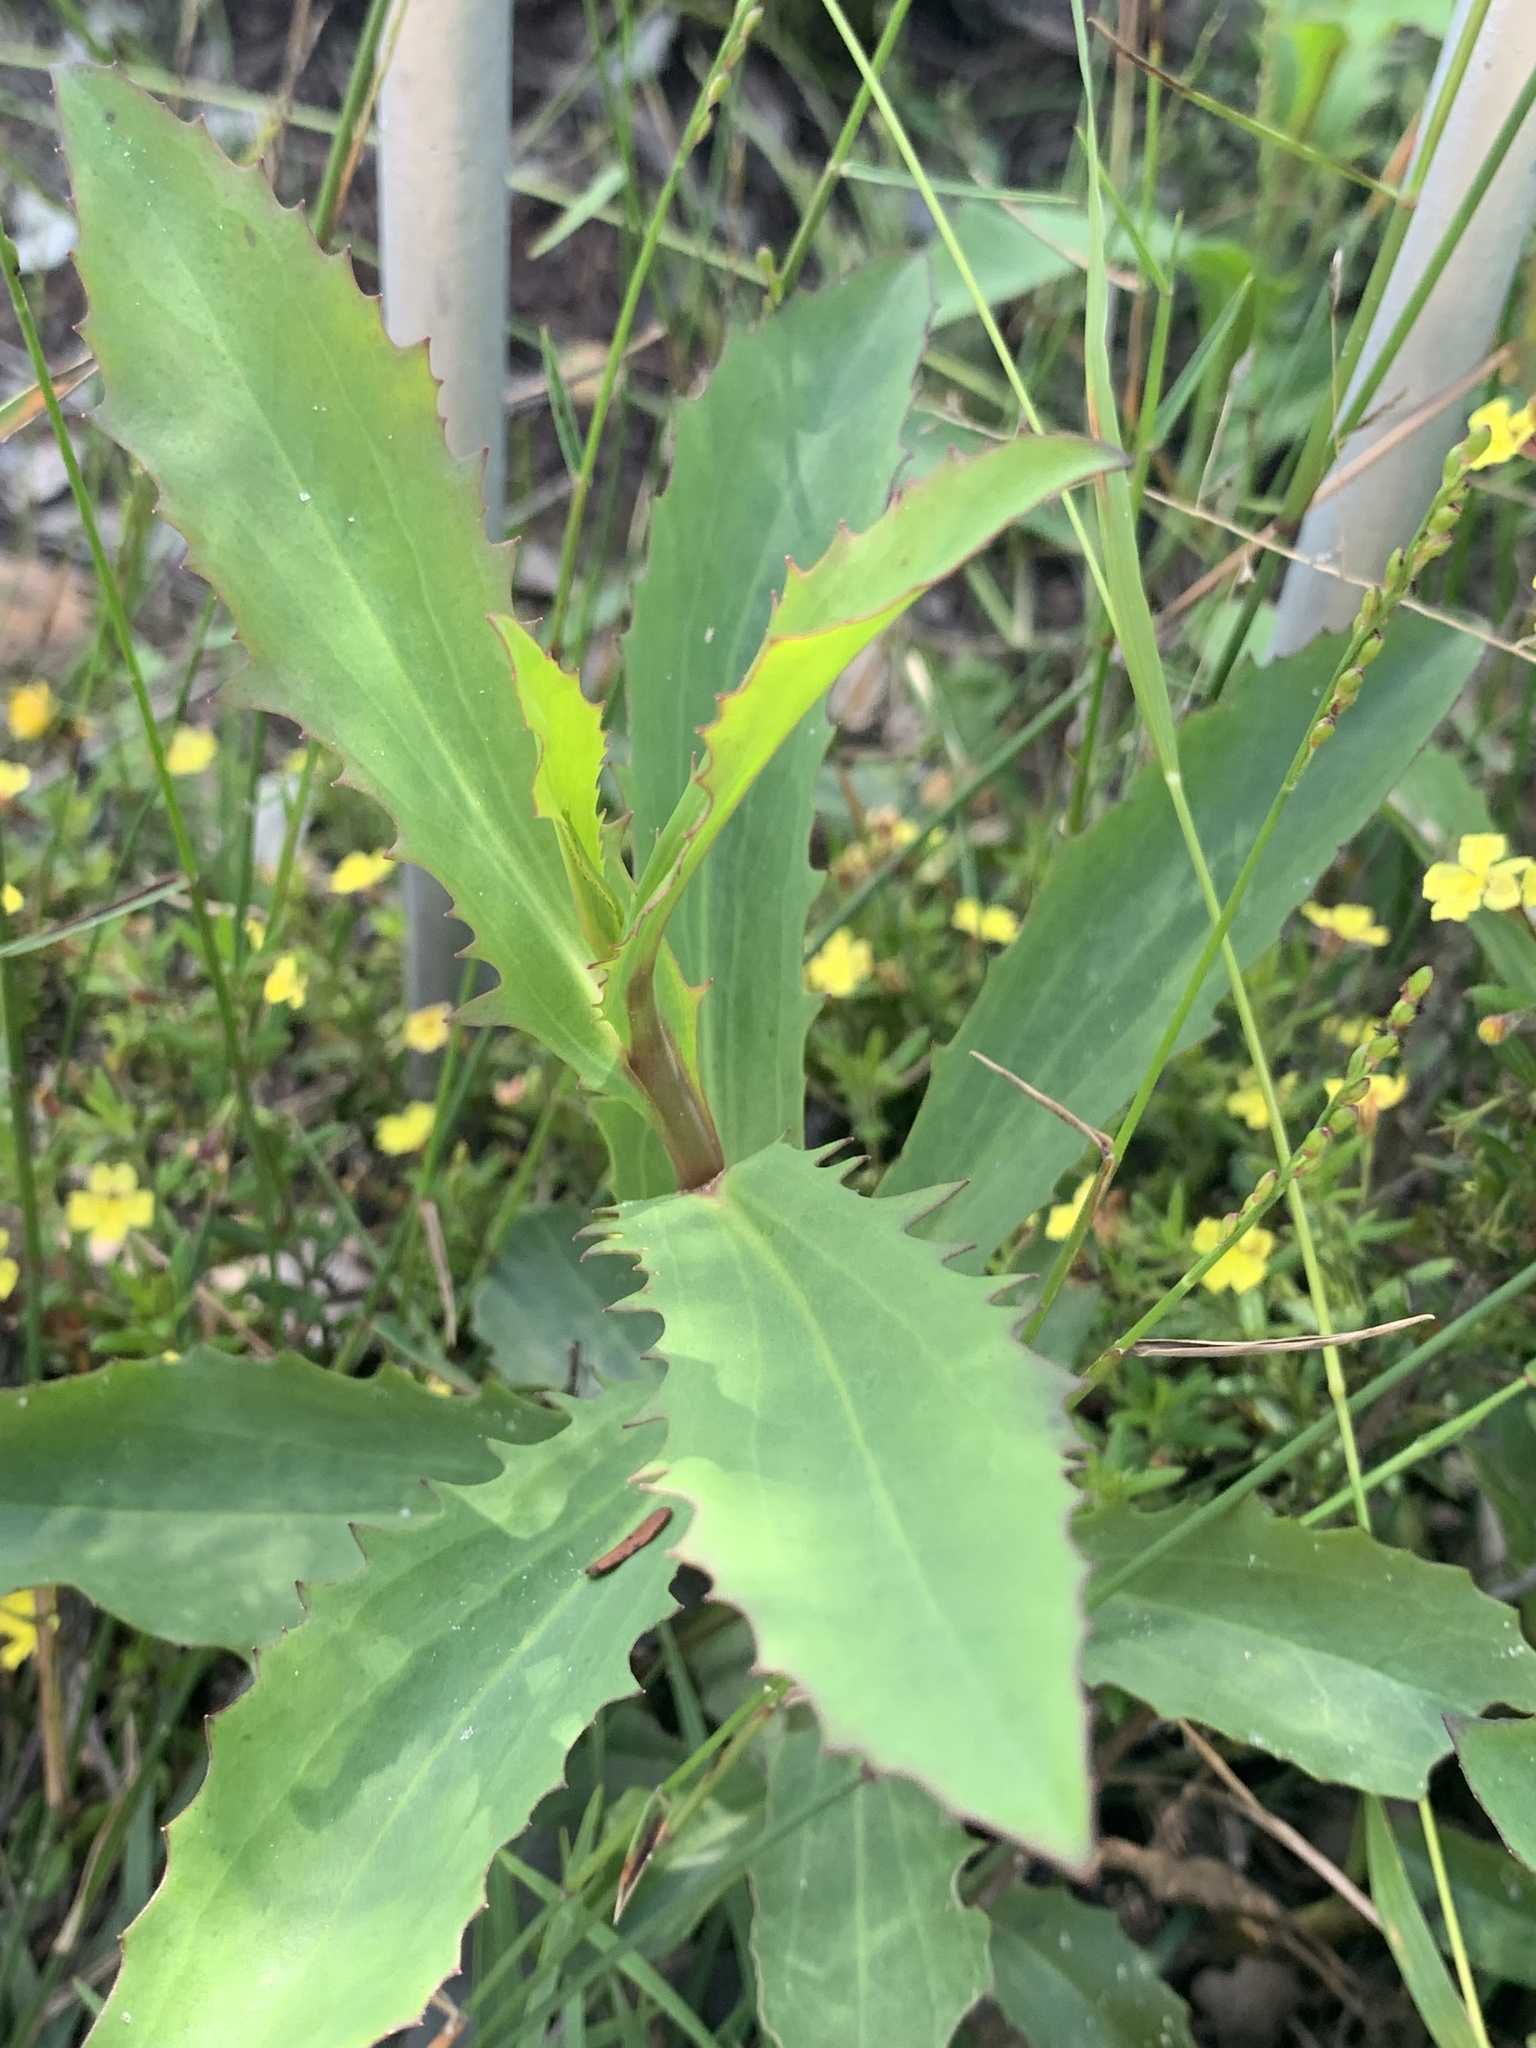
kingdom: Plantae
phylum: Tracheophyta
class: Magnoliopsida
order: Asterales
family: Goodeniaceae
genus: Goodenia
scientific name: Goodenia decurrens
